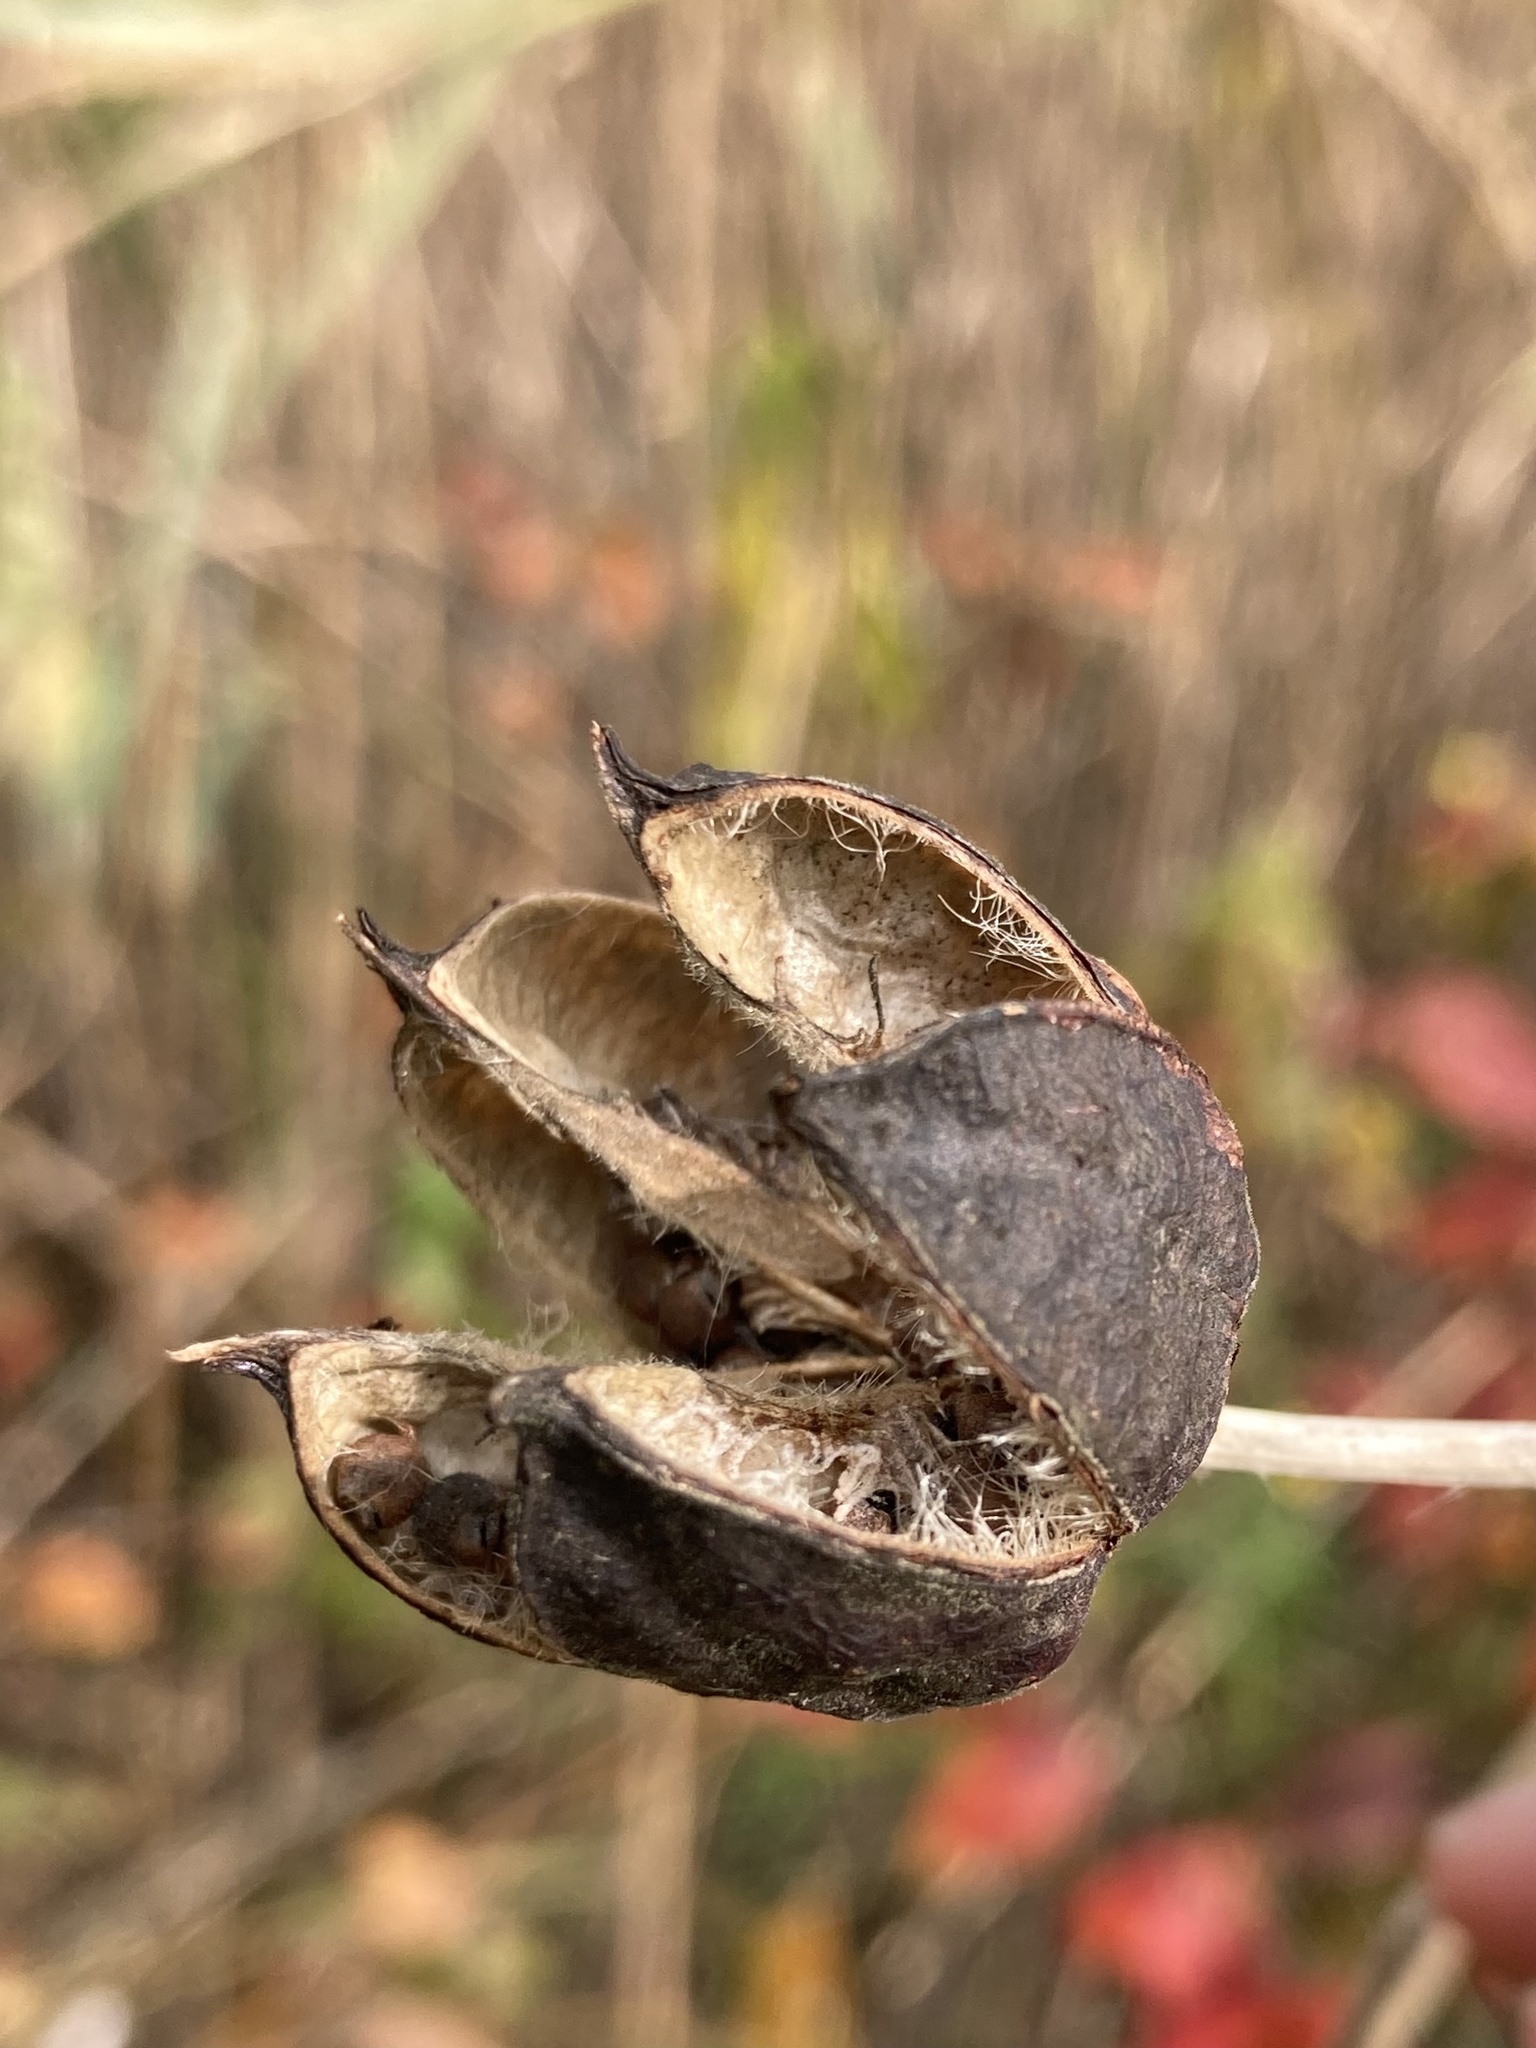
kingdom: Plantae
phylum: Tracheophyta
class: Magnoliopsida
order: Malvales
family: Malvaceae
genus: Hibiscus
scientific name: Hibiscus moscheutos
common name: Common rose-mallow
